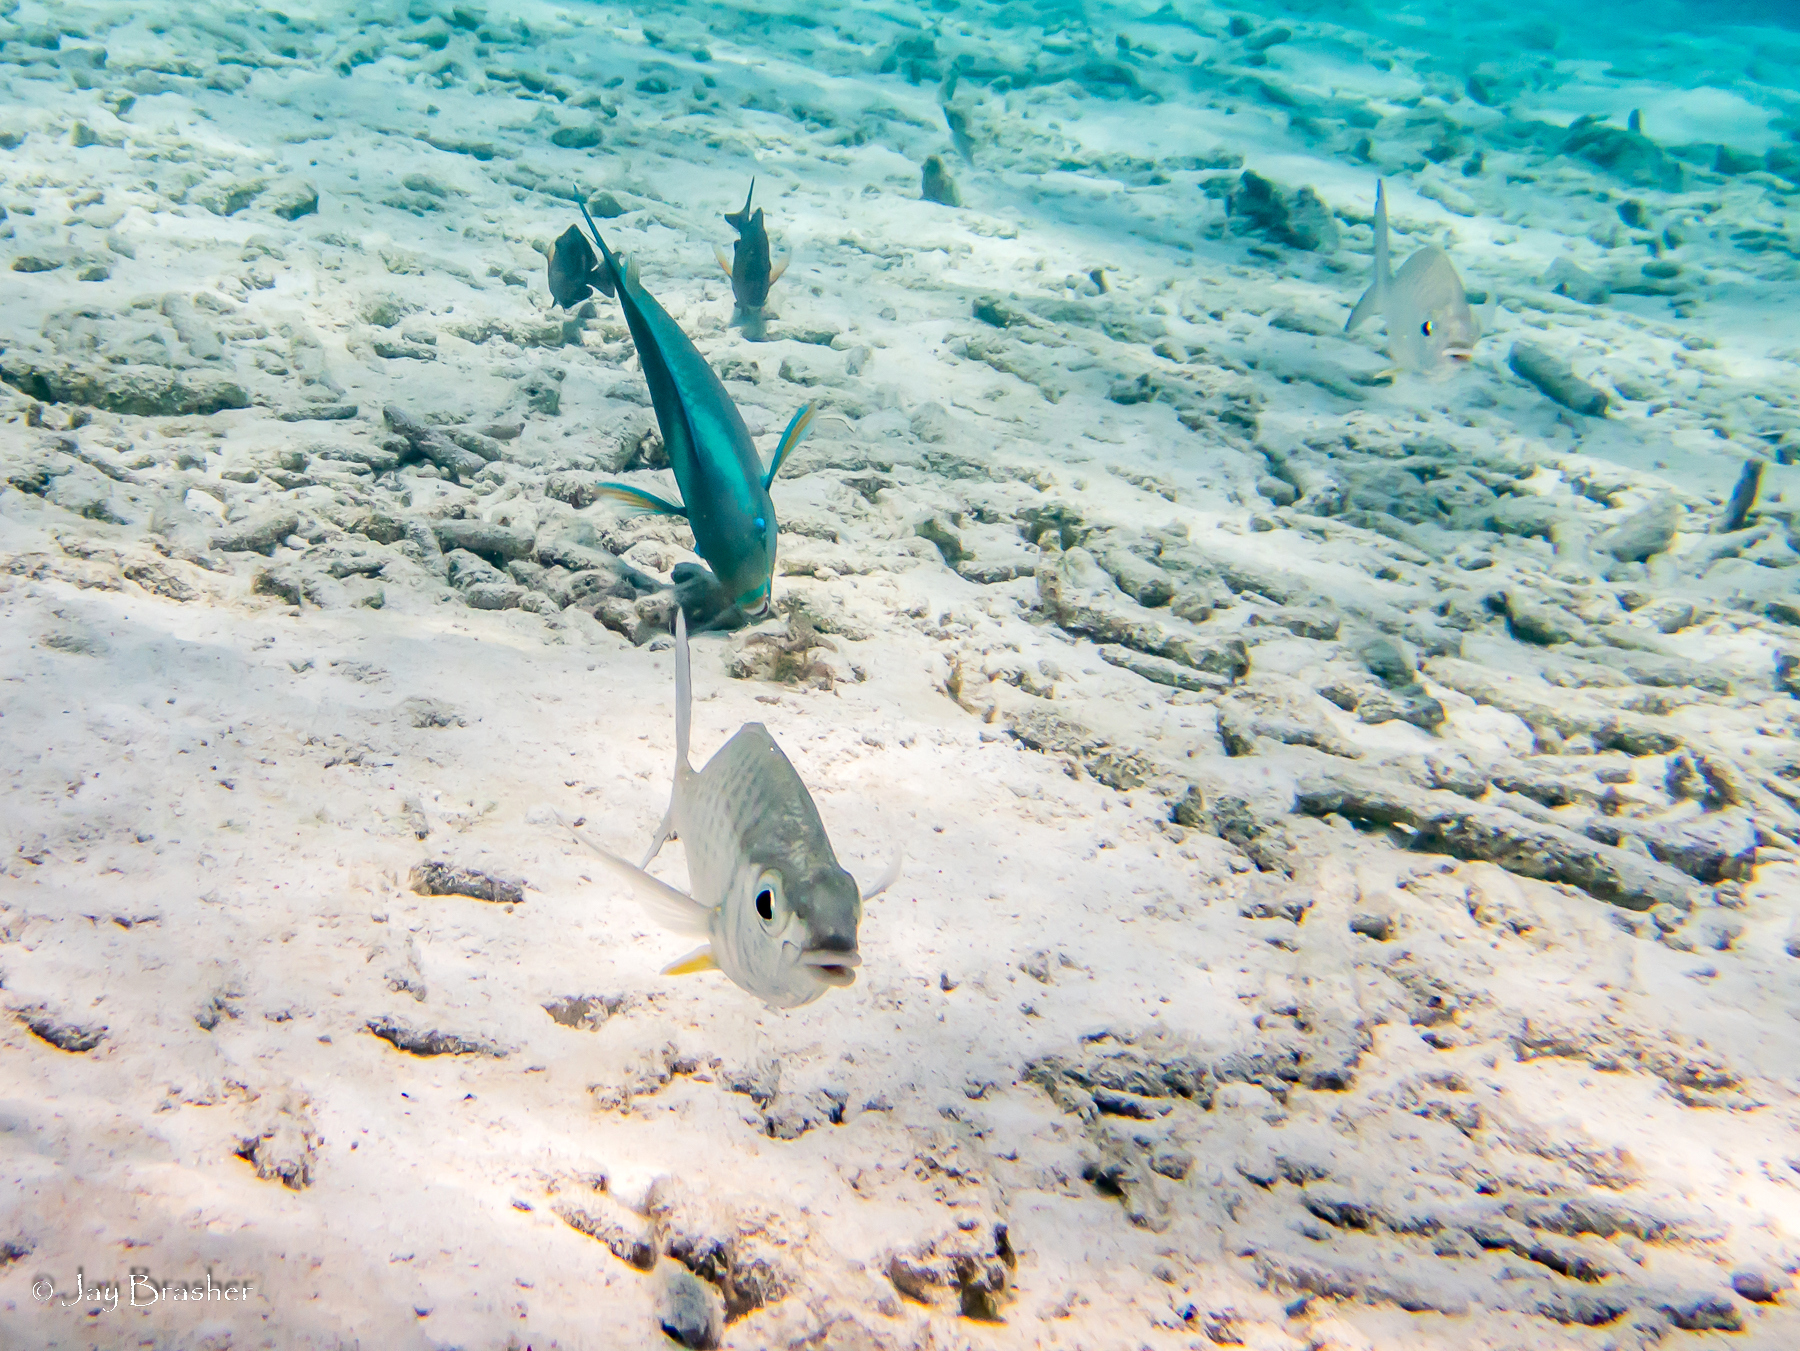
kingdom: Animalia
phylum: Chordata
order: Perciformes
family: Gerreidae
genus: Gerres
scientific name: Gerres cinereus
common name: Hedow
